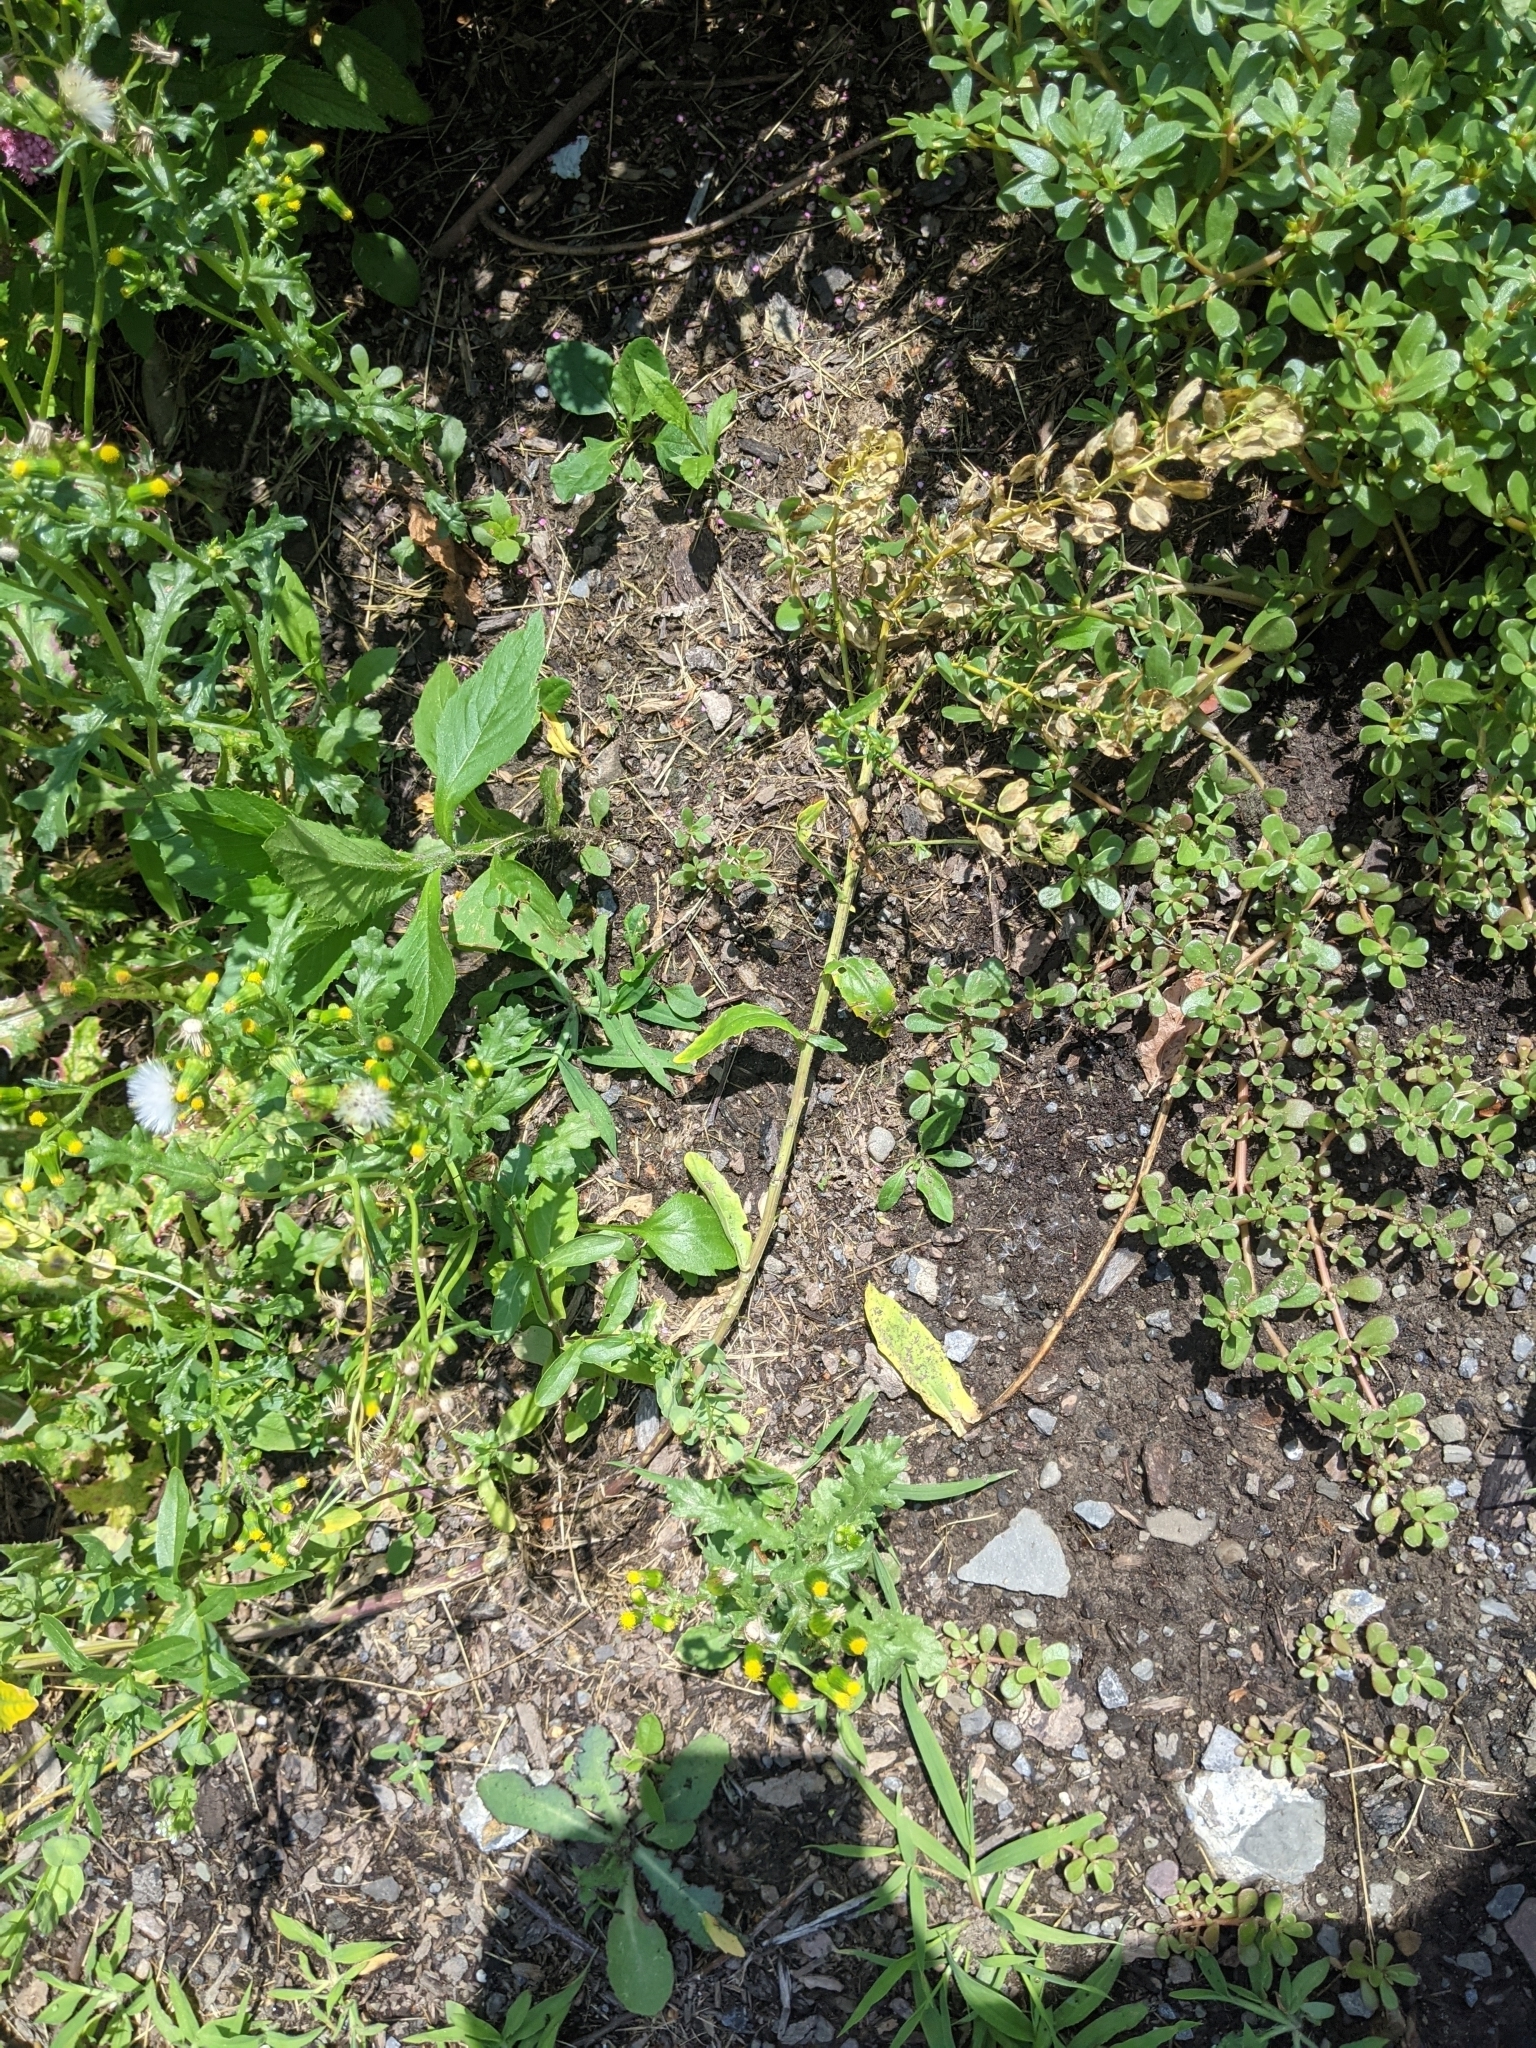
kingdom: Plantae
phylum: Tracheophyta
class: Magnoliopsida
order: Brassicales
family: Brassicaceae
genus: Thlaspi
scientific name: Thlaspi arvense
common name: Field pennycress
